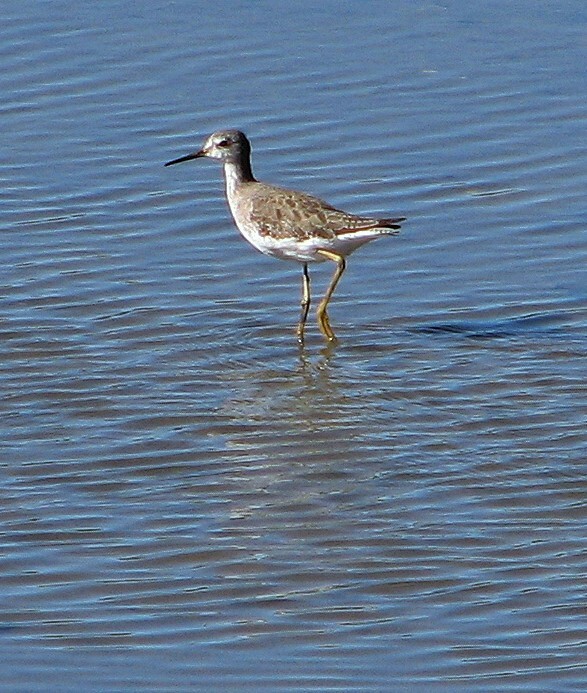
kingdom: Animalia
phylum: Chordata
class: Aves
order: Charadriiformes
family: Scolopacidae
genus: Tringa
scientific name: Tringa flavipes
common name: Lesser yellowlegs
